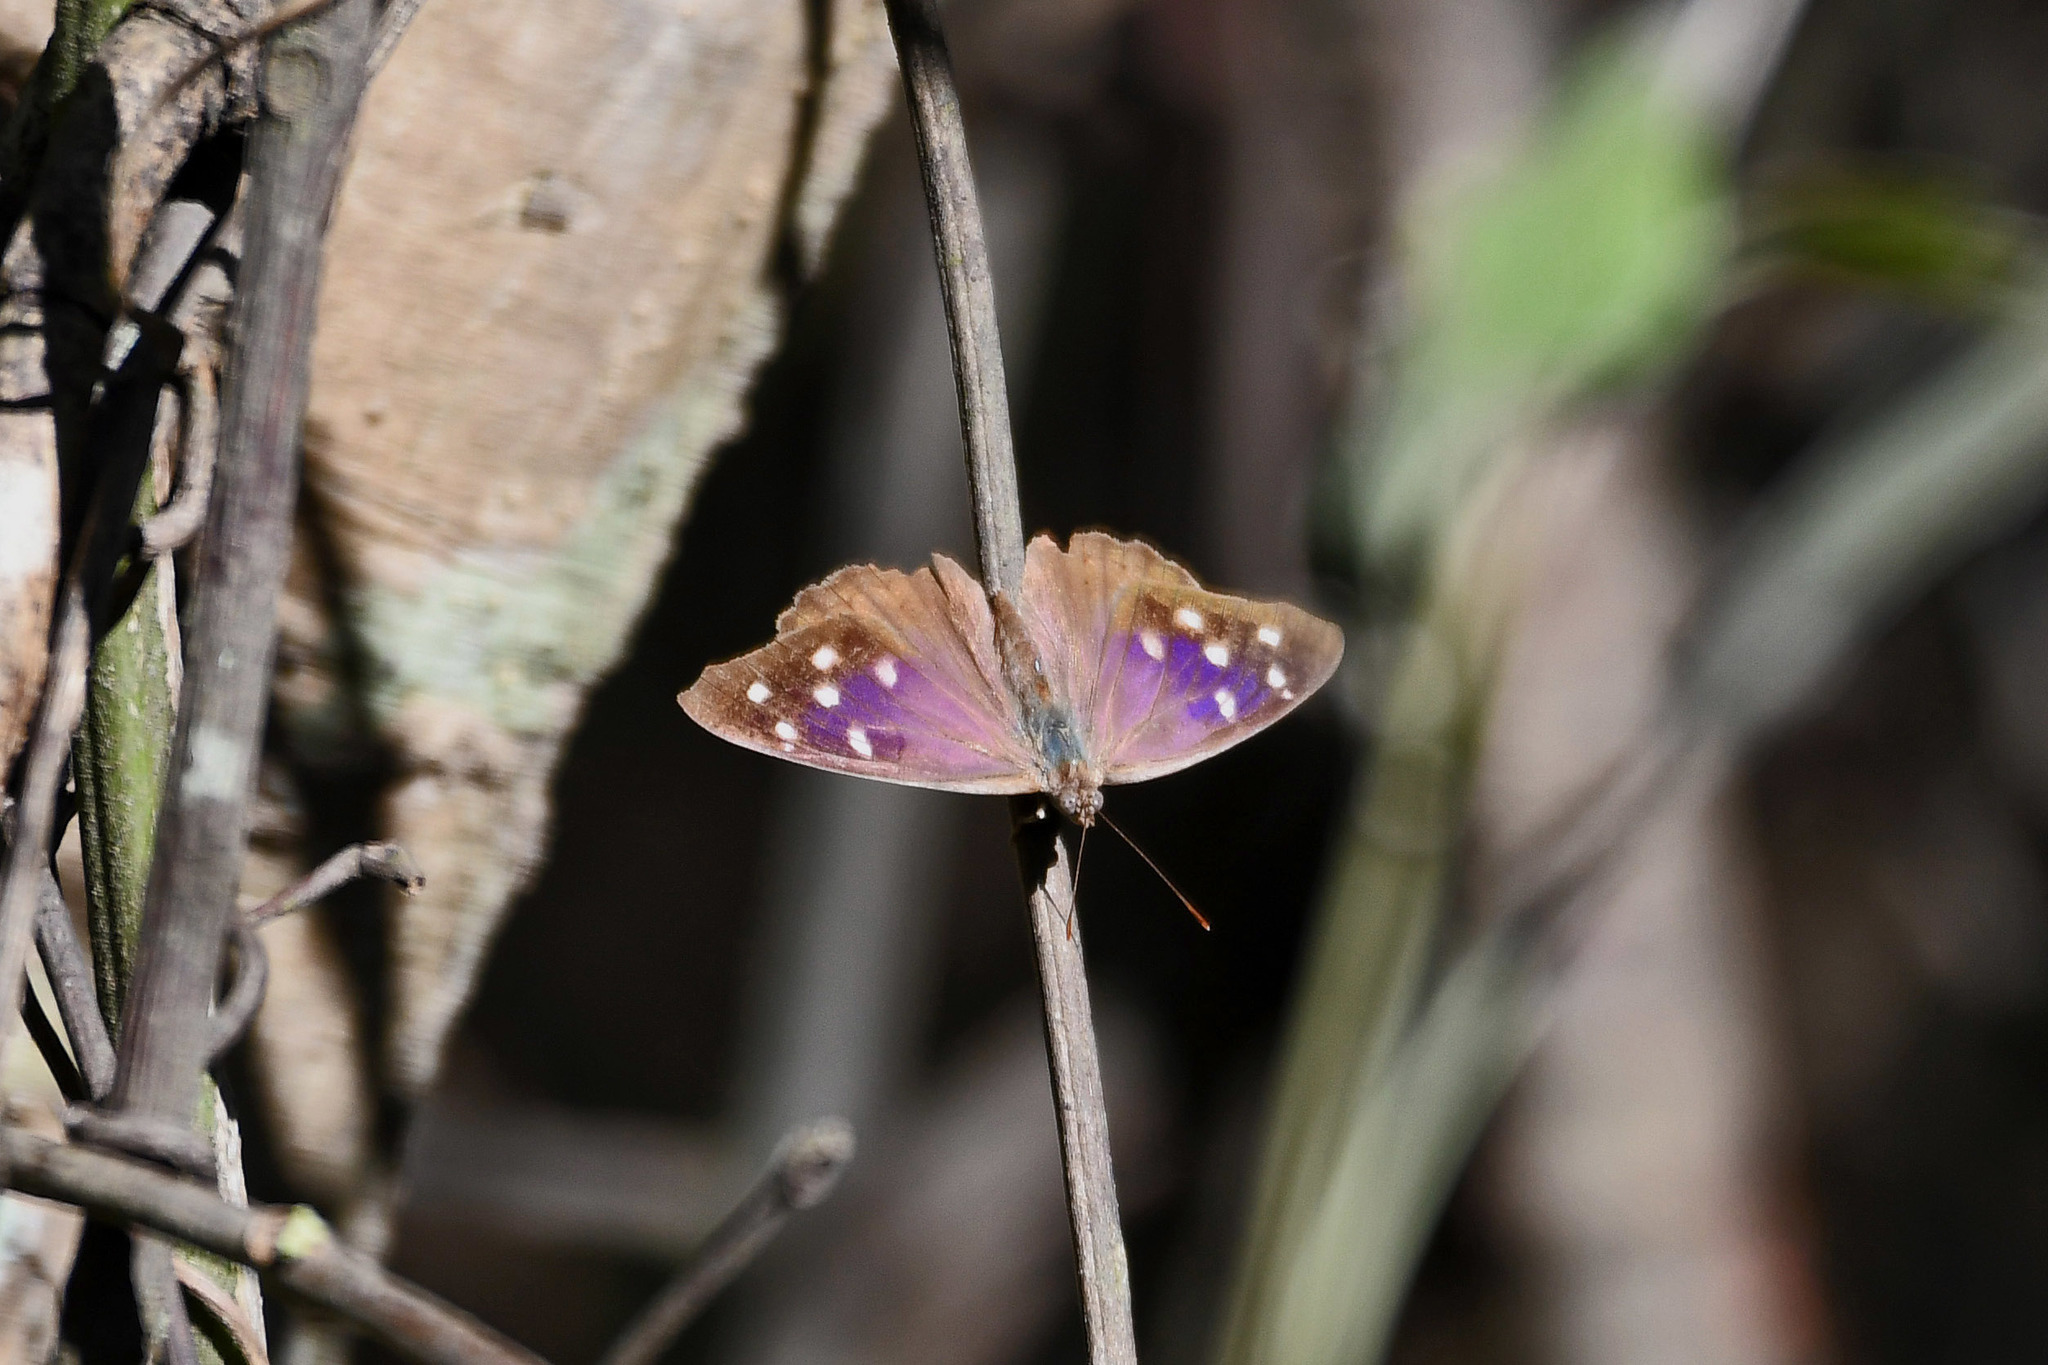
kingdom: Animalia
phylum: Arthropoda
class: Insecta
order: Lepidoptera
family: Nymphalidae
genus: Eunica
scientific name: Eunica tatila
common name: Florida purplewing
